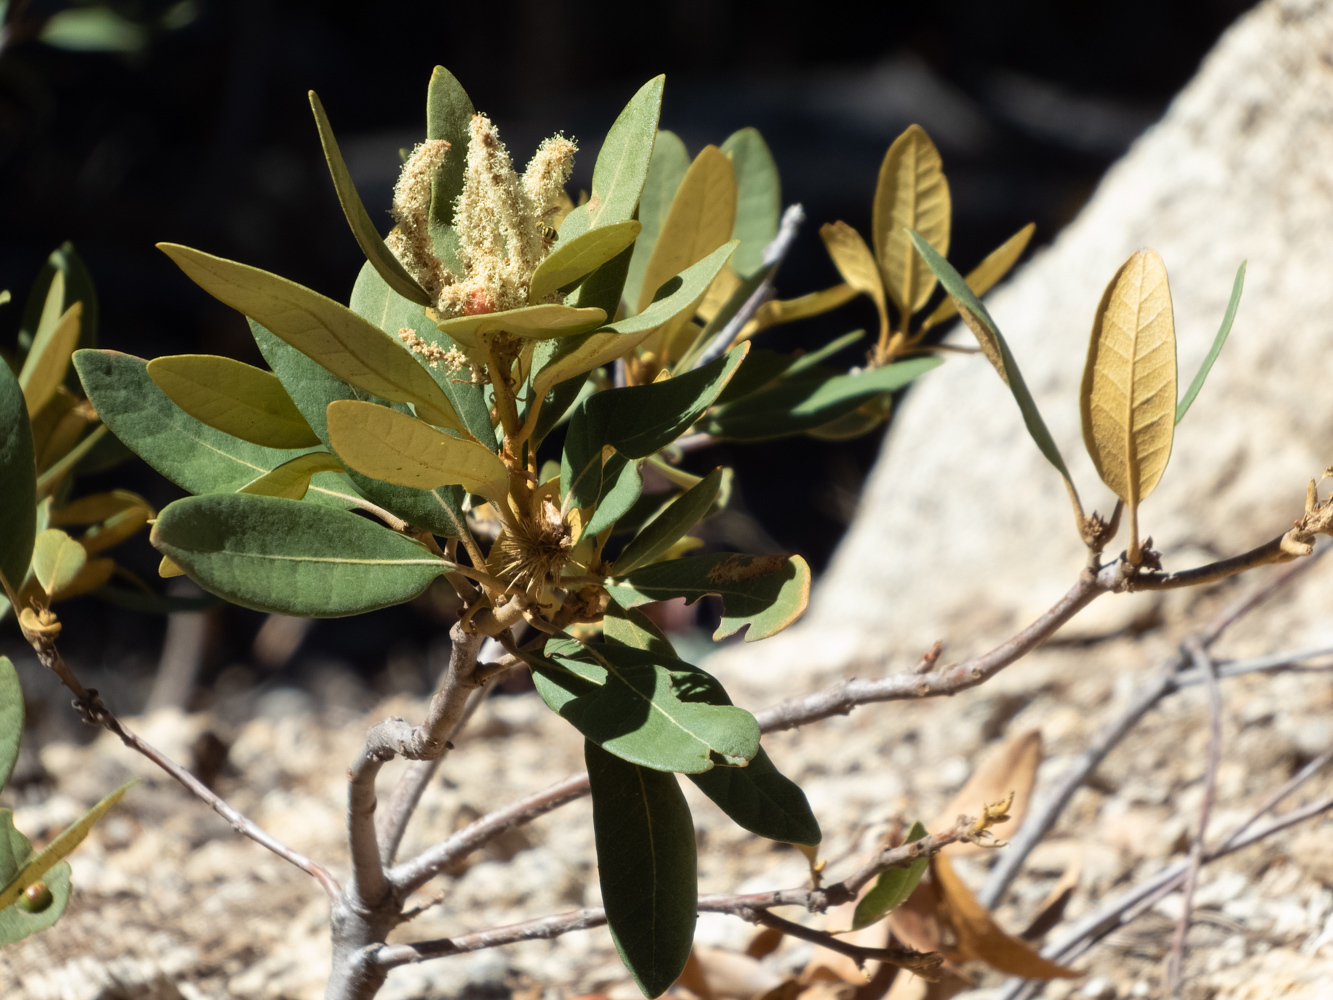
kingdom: Plantae
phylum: Tracheophyta
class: Magnoliopsida
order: Fagales
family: Fagaceae
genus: Chrysolepis
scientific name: Chrysolepis sempervirens
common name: Bush chinquapin
